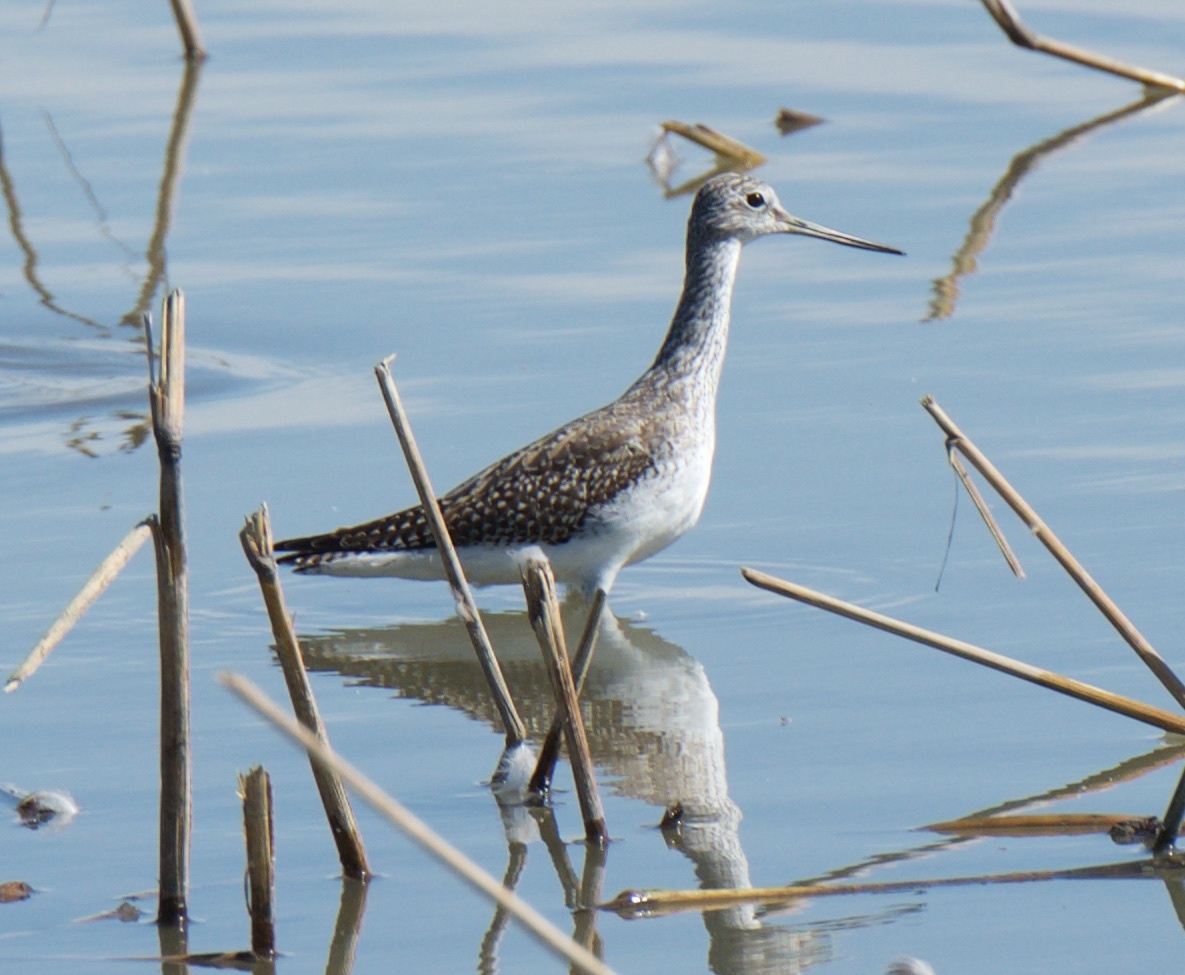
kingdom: Animalia
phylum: Chordata
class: Aves
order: Charadriiformes
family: Scolopacidae
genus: Tringa
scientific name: Tringa melanoleuca
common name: Greater yellowlegs
